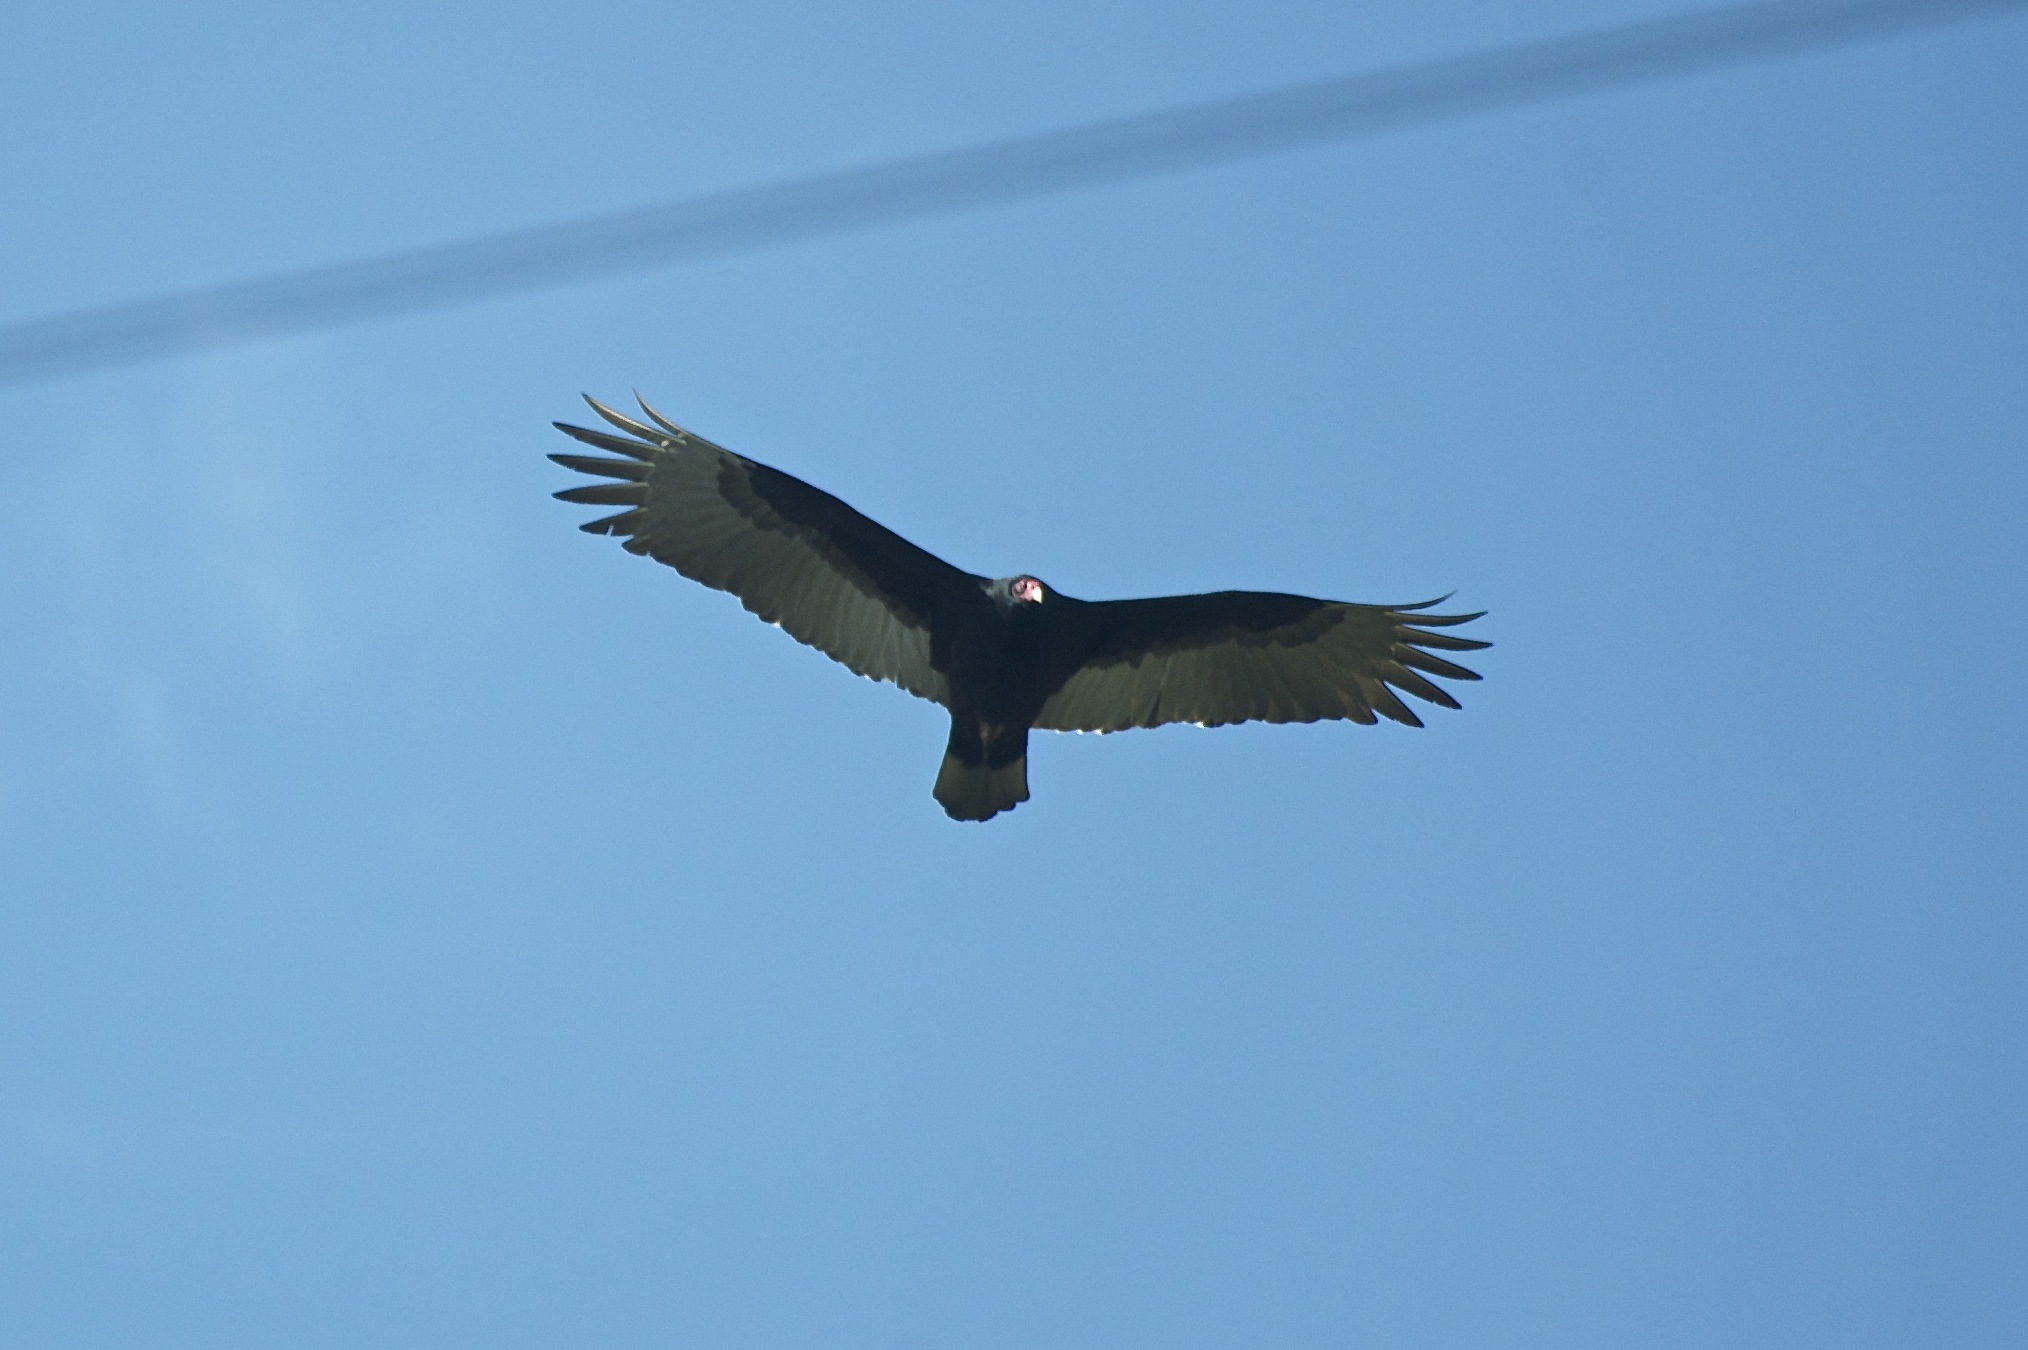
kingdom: Animalia
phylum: Chordata
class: Aves
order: Accipitriformes
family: Cathartidae
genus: Cathartes
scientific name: Cathartes aura
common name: Turkey vulture
